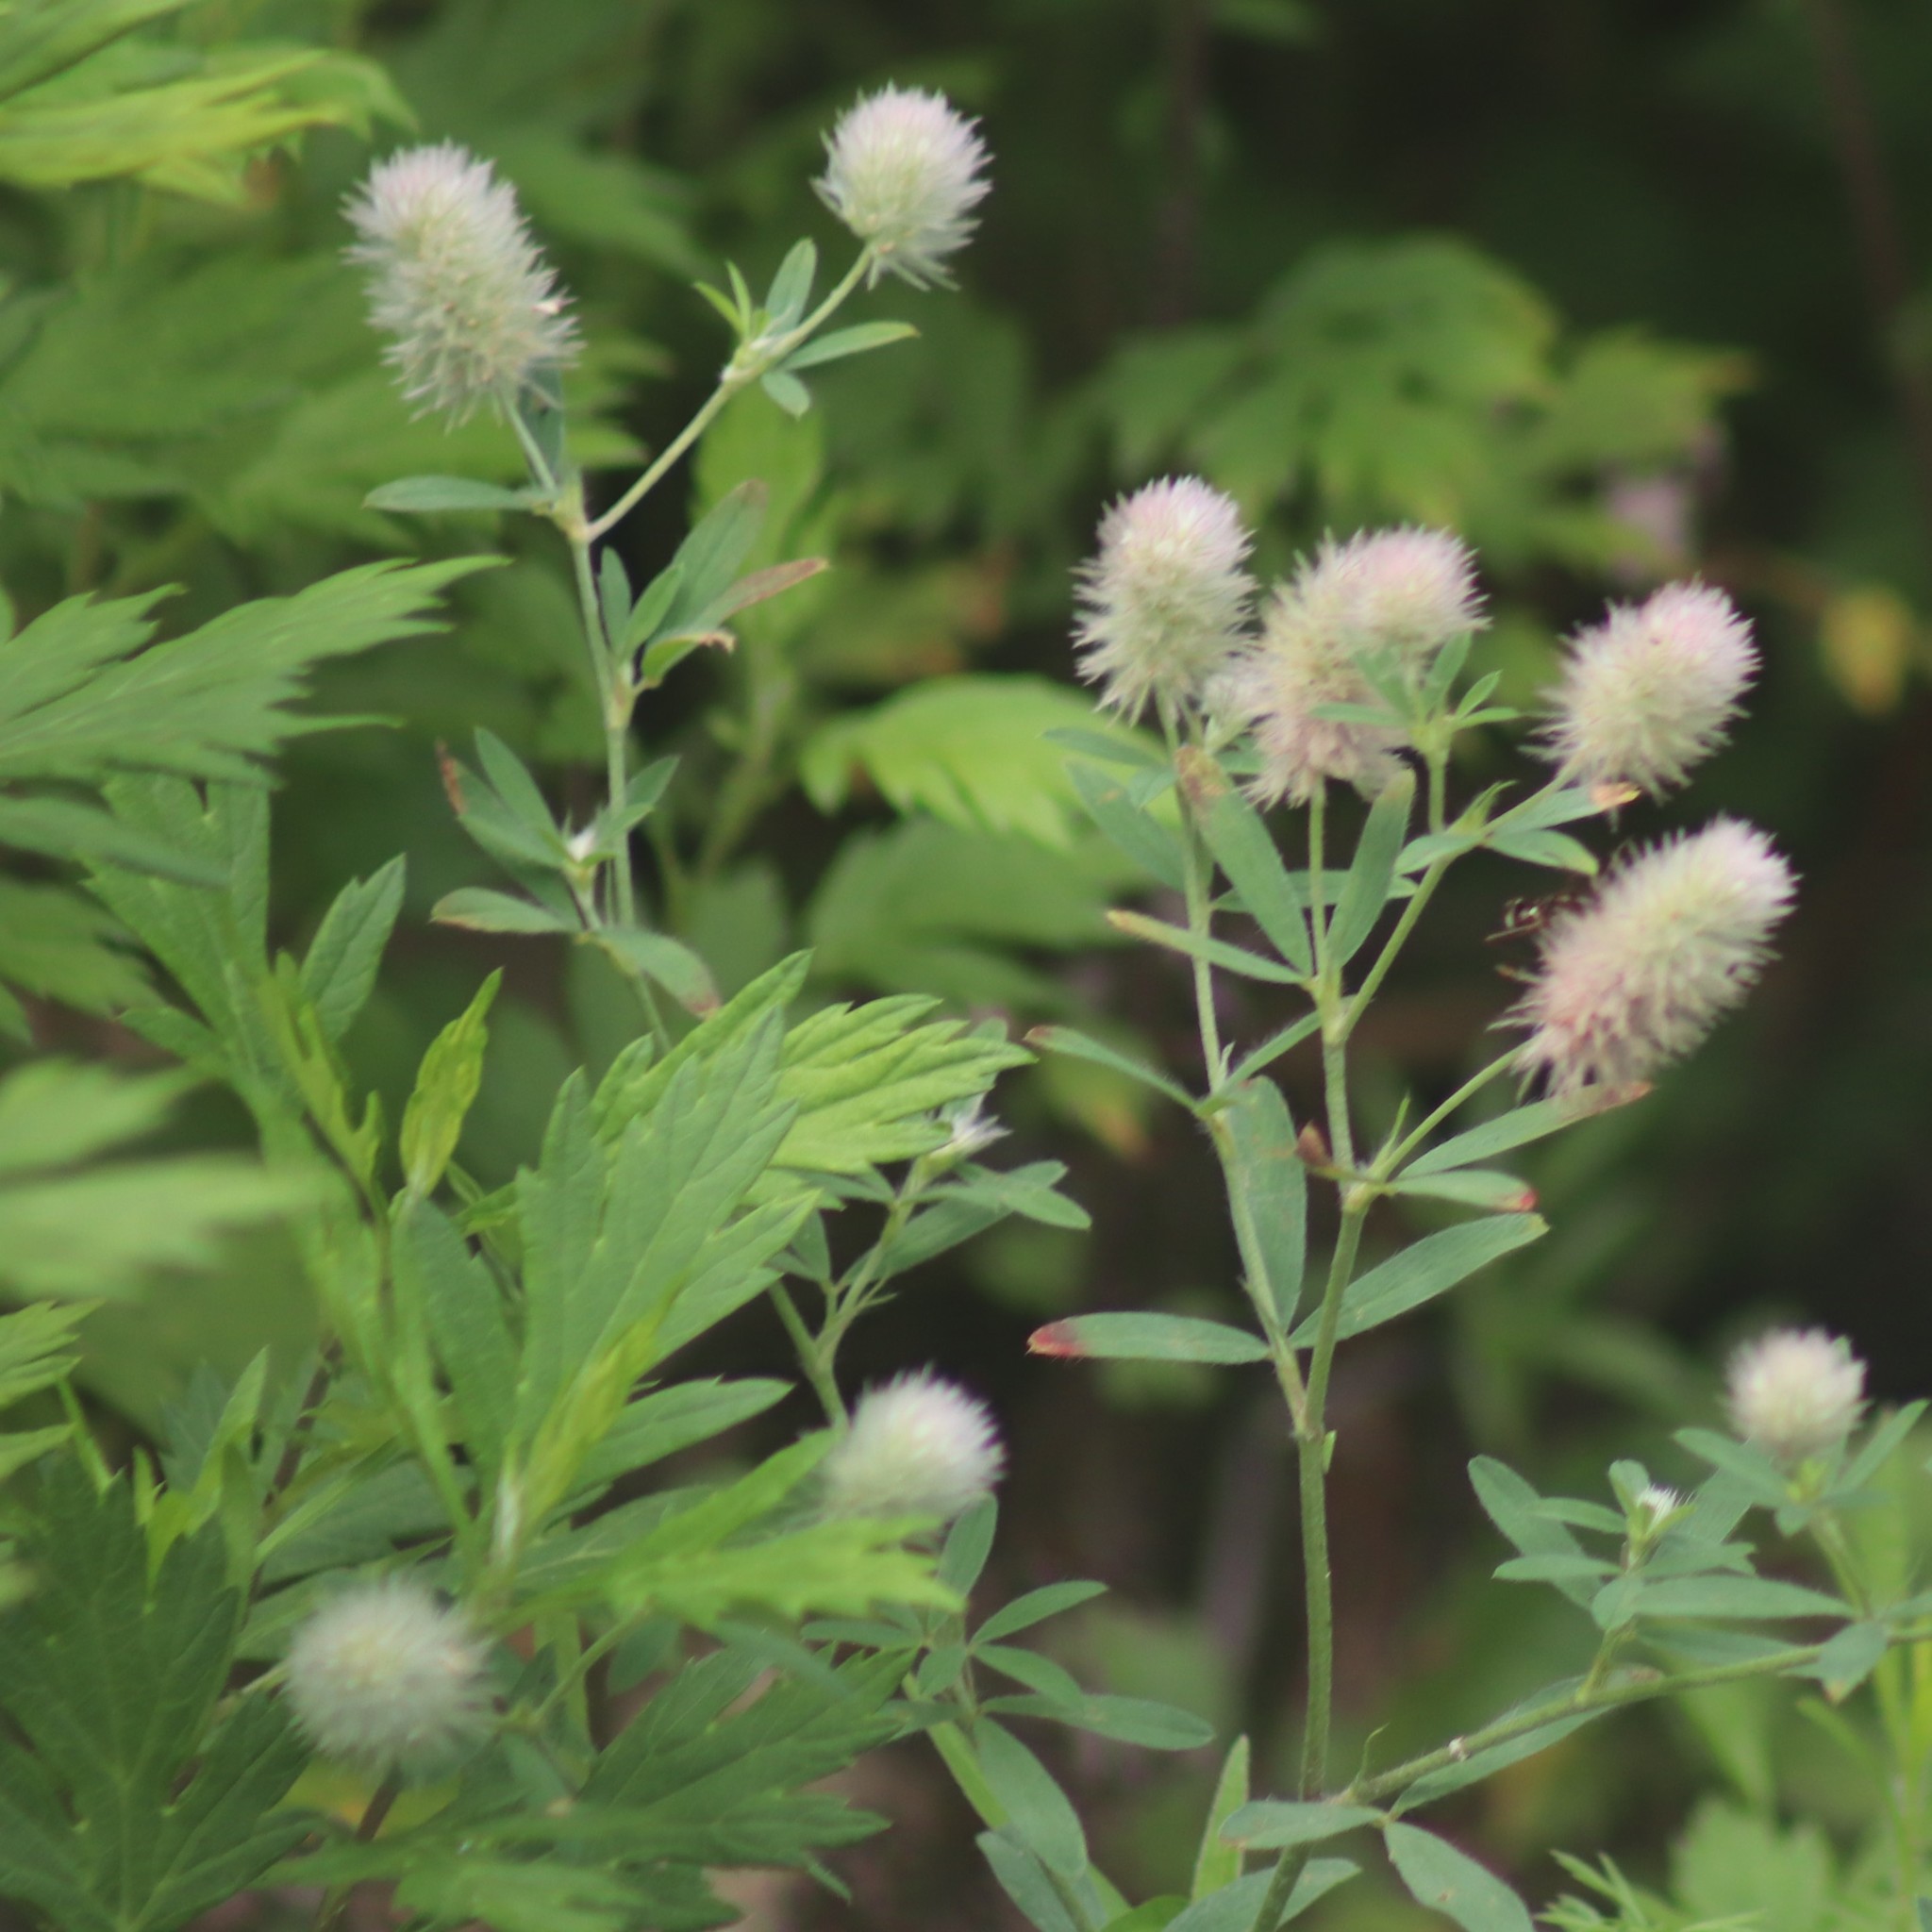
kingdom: Plantae
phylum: Tracheophyta
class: Magnoliopsida
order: Fabales
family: Fabaceae
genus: Trifolium
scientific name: Trifolium arvense
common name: Hare's-foot clover
